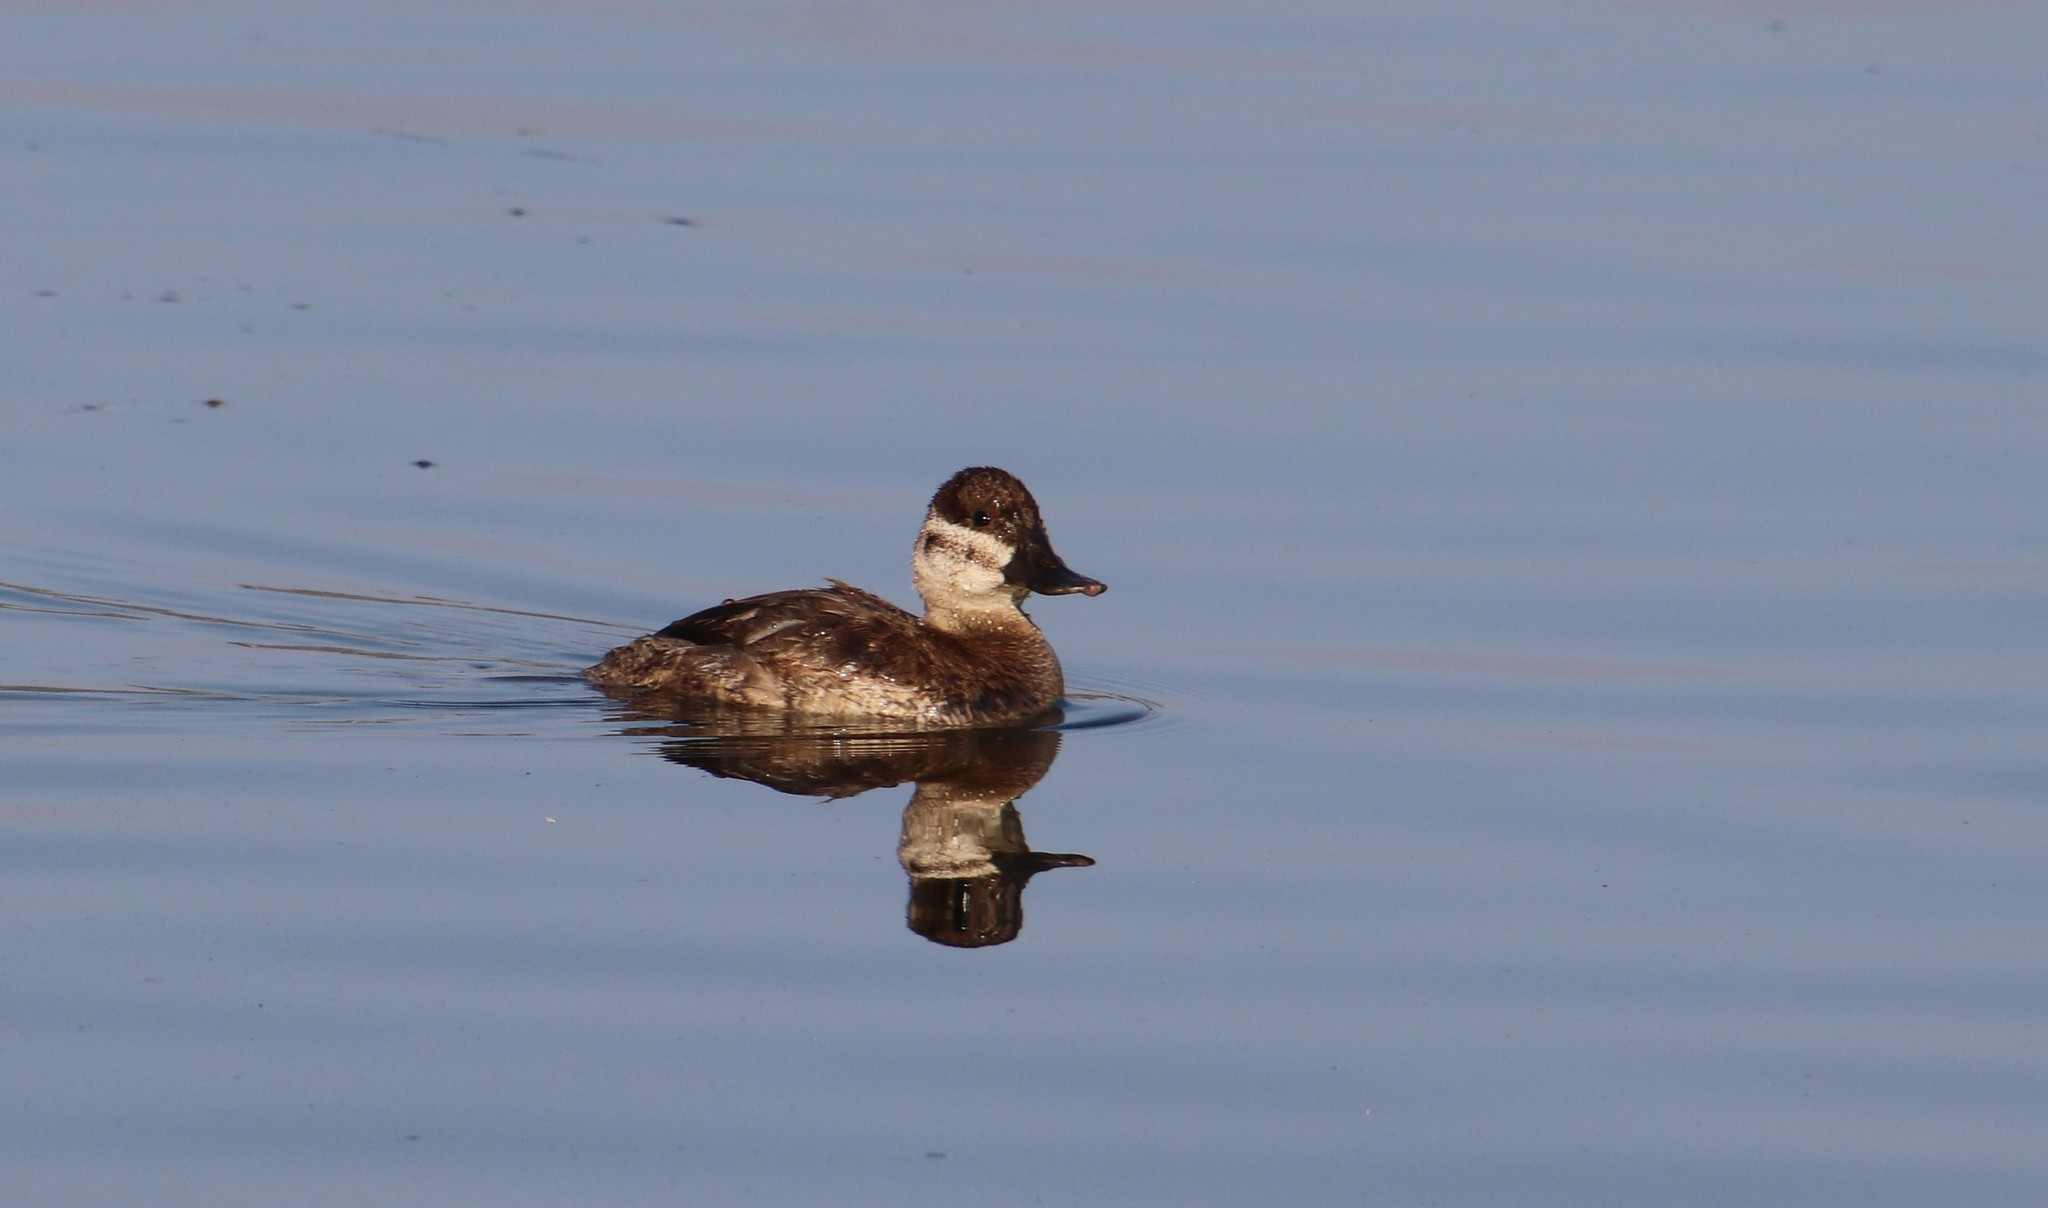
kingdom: Animalia
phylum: Chordata
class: Aves
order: Anseriformes
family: Anatidae
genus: Oxyura
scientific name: Oxyura jamaicensis
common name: Ruddy duck
